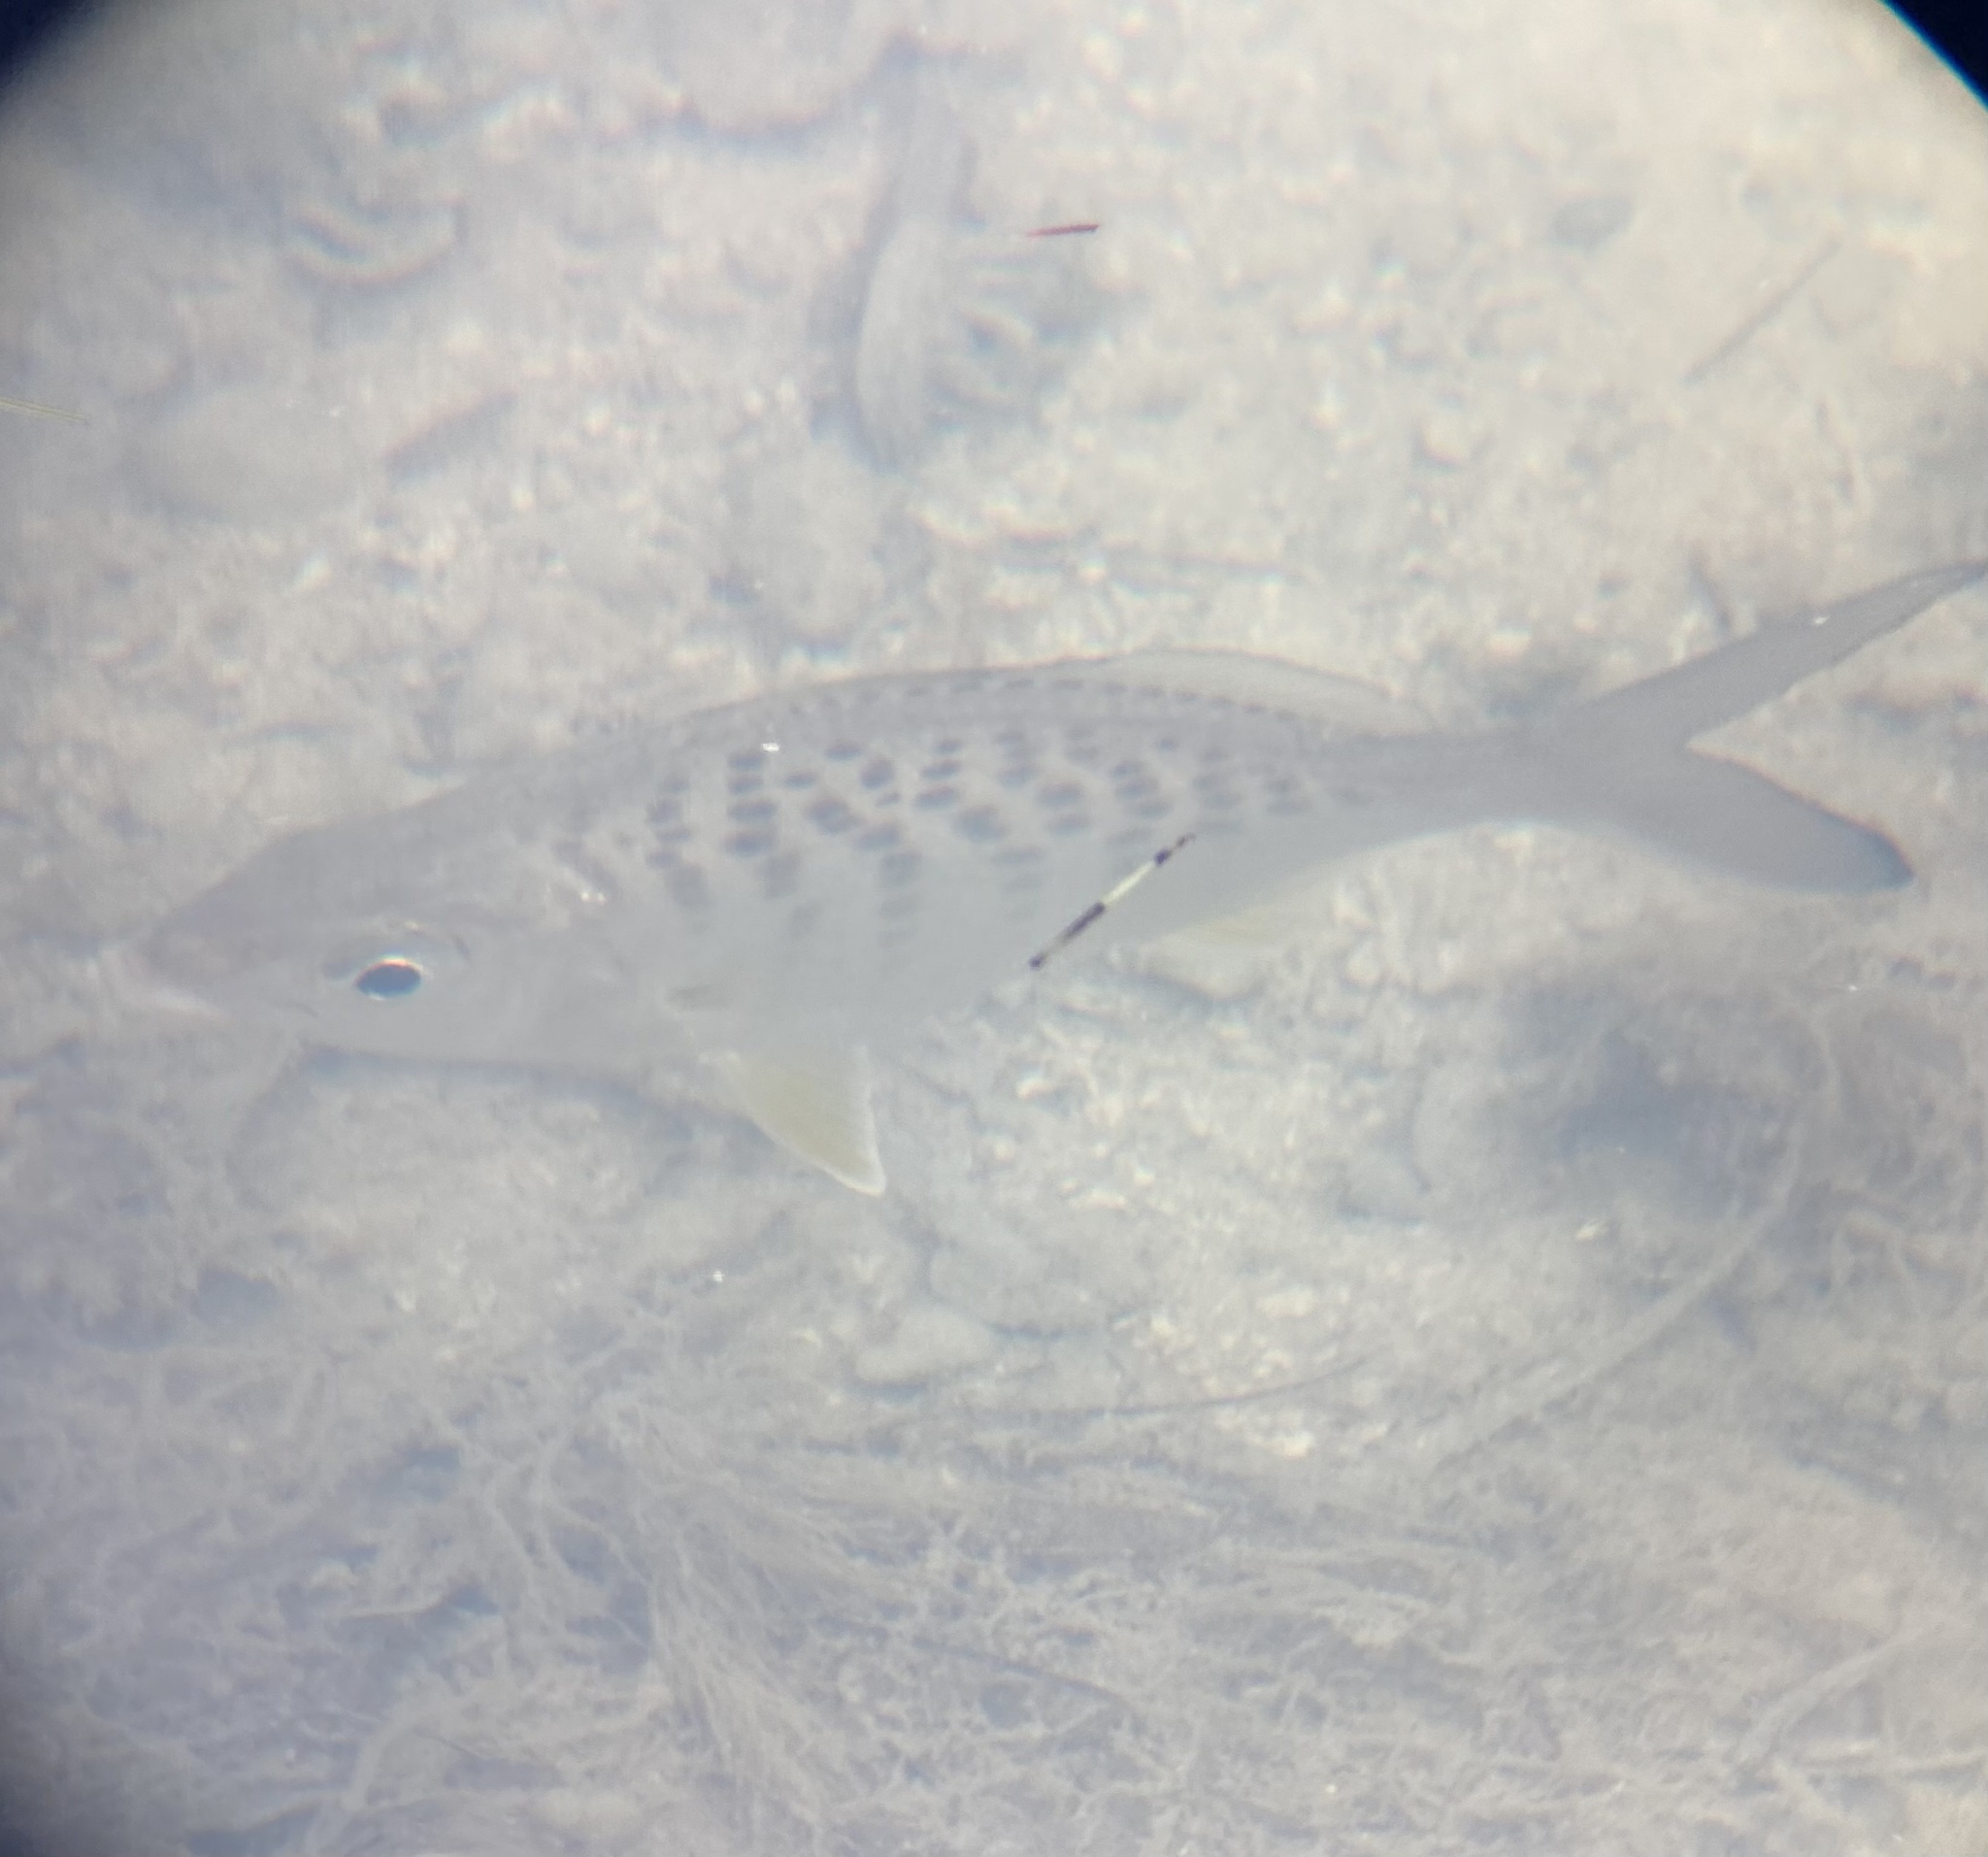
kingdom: Animalia
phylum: Chordata
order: Perciformes
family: Gerreidae
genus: Gerres
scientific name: Gerres cinereus
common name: Hedow
